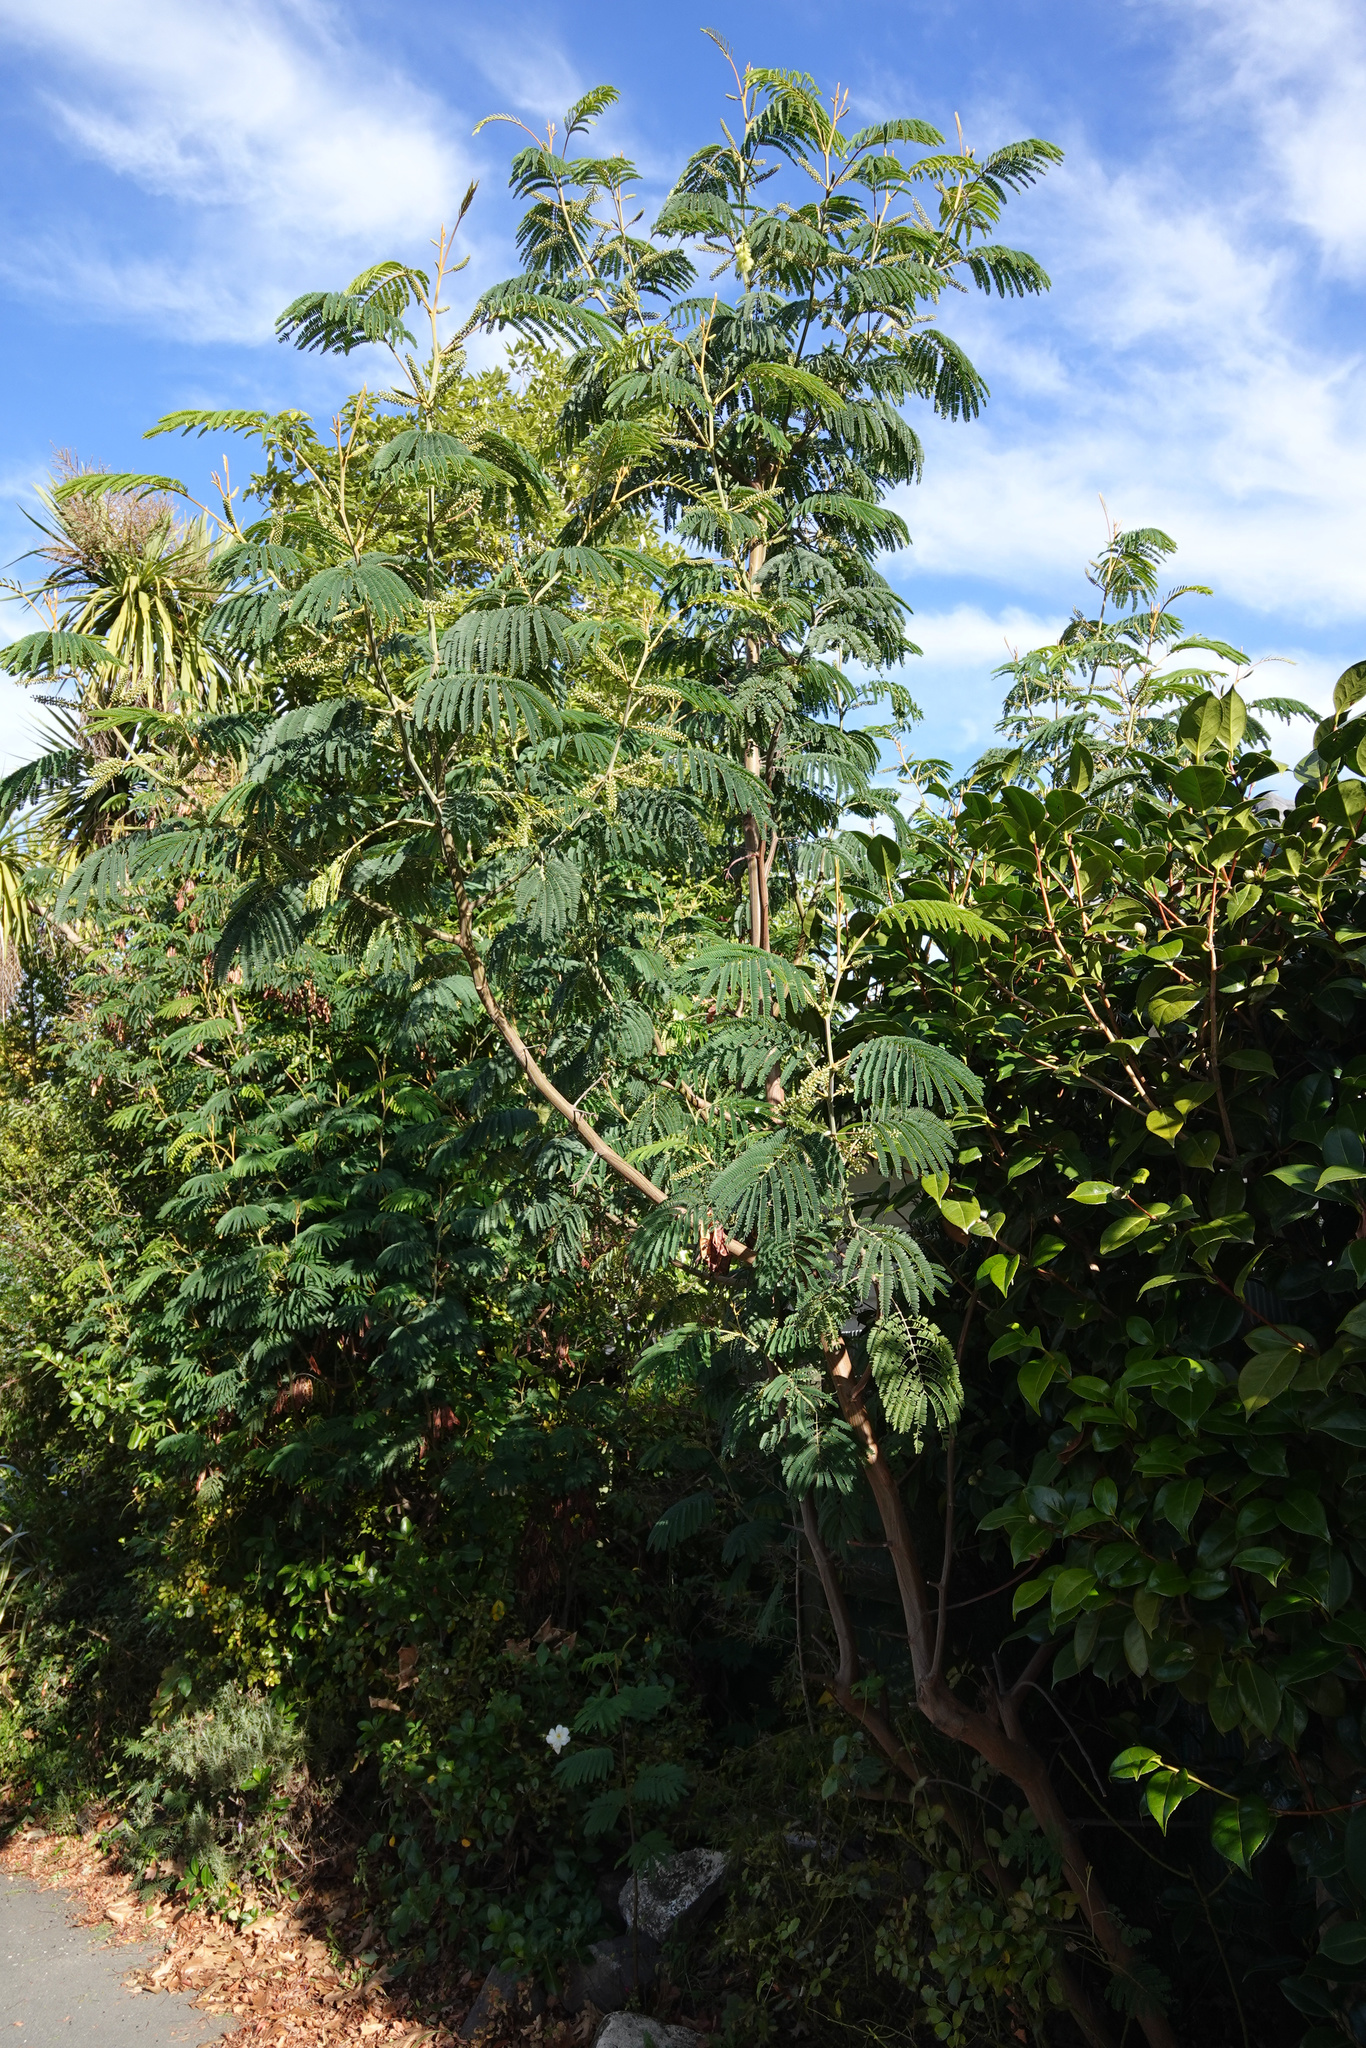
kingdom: Plantae
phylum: Tracheophyta
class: Magnoliopsida
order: Fabales
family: Fabaceae
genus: Paraserianthes
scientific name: Paraserianthes lophantha
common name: Plume albizia
